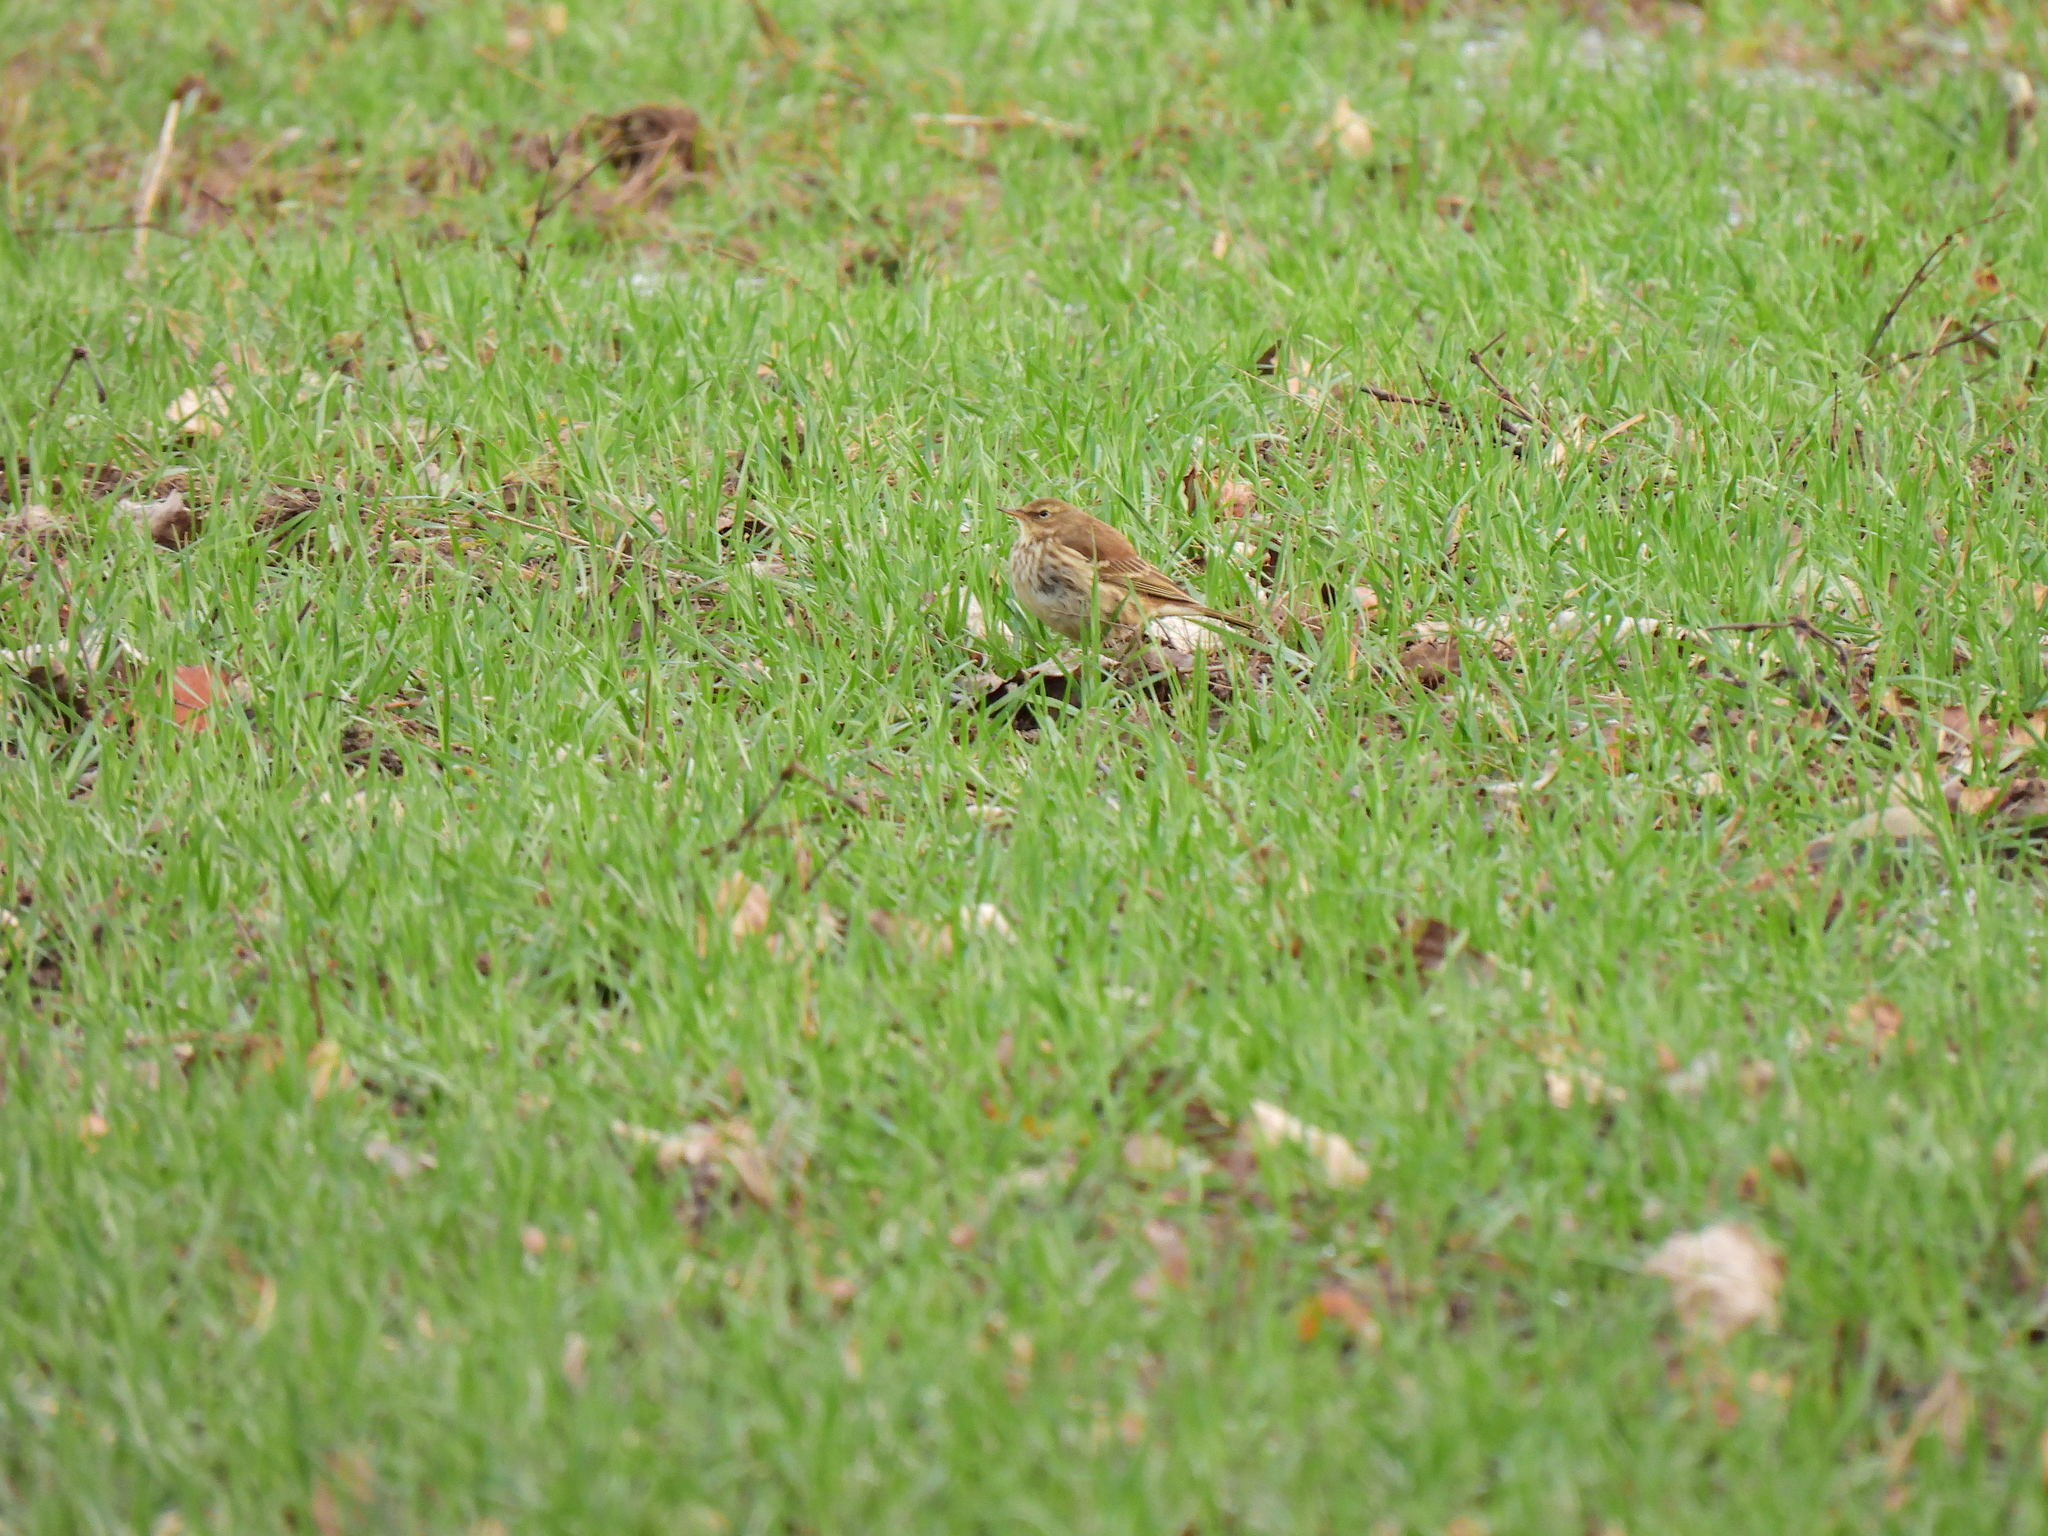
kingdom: Animalia
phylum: Chordata
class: Aves
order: Passeriformes
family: Motacillidae
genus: Anthus
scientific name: Anthus spinoletta
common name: Water pipit
